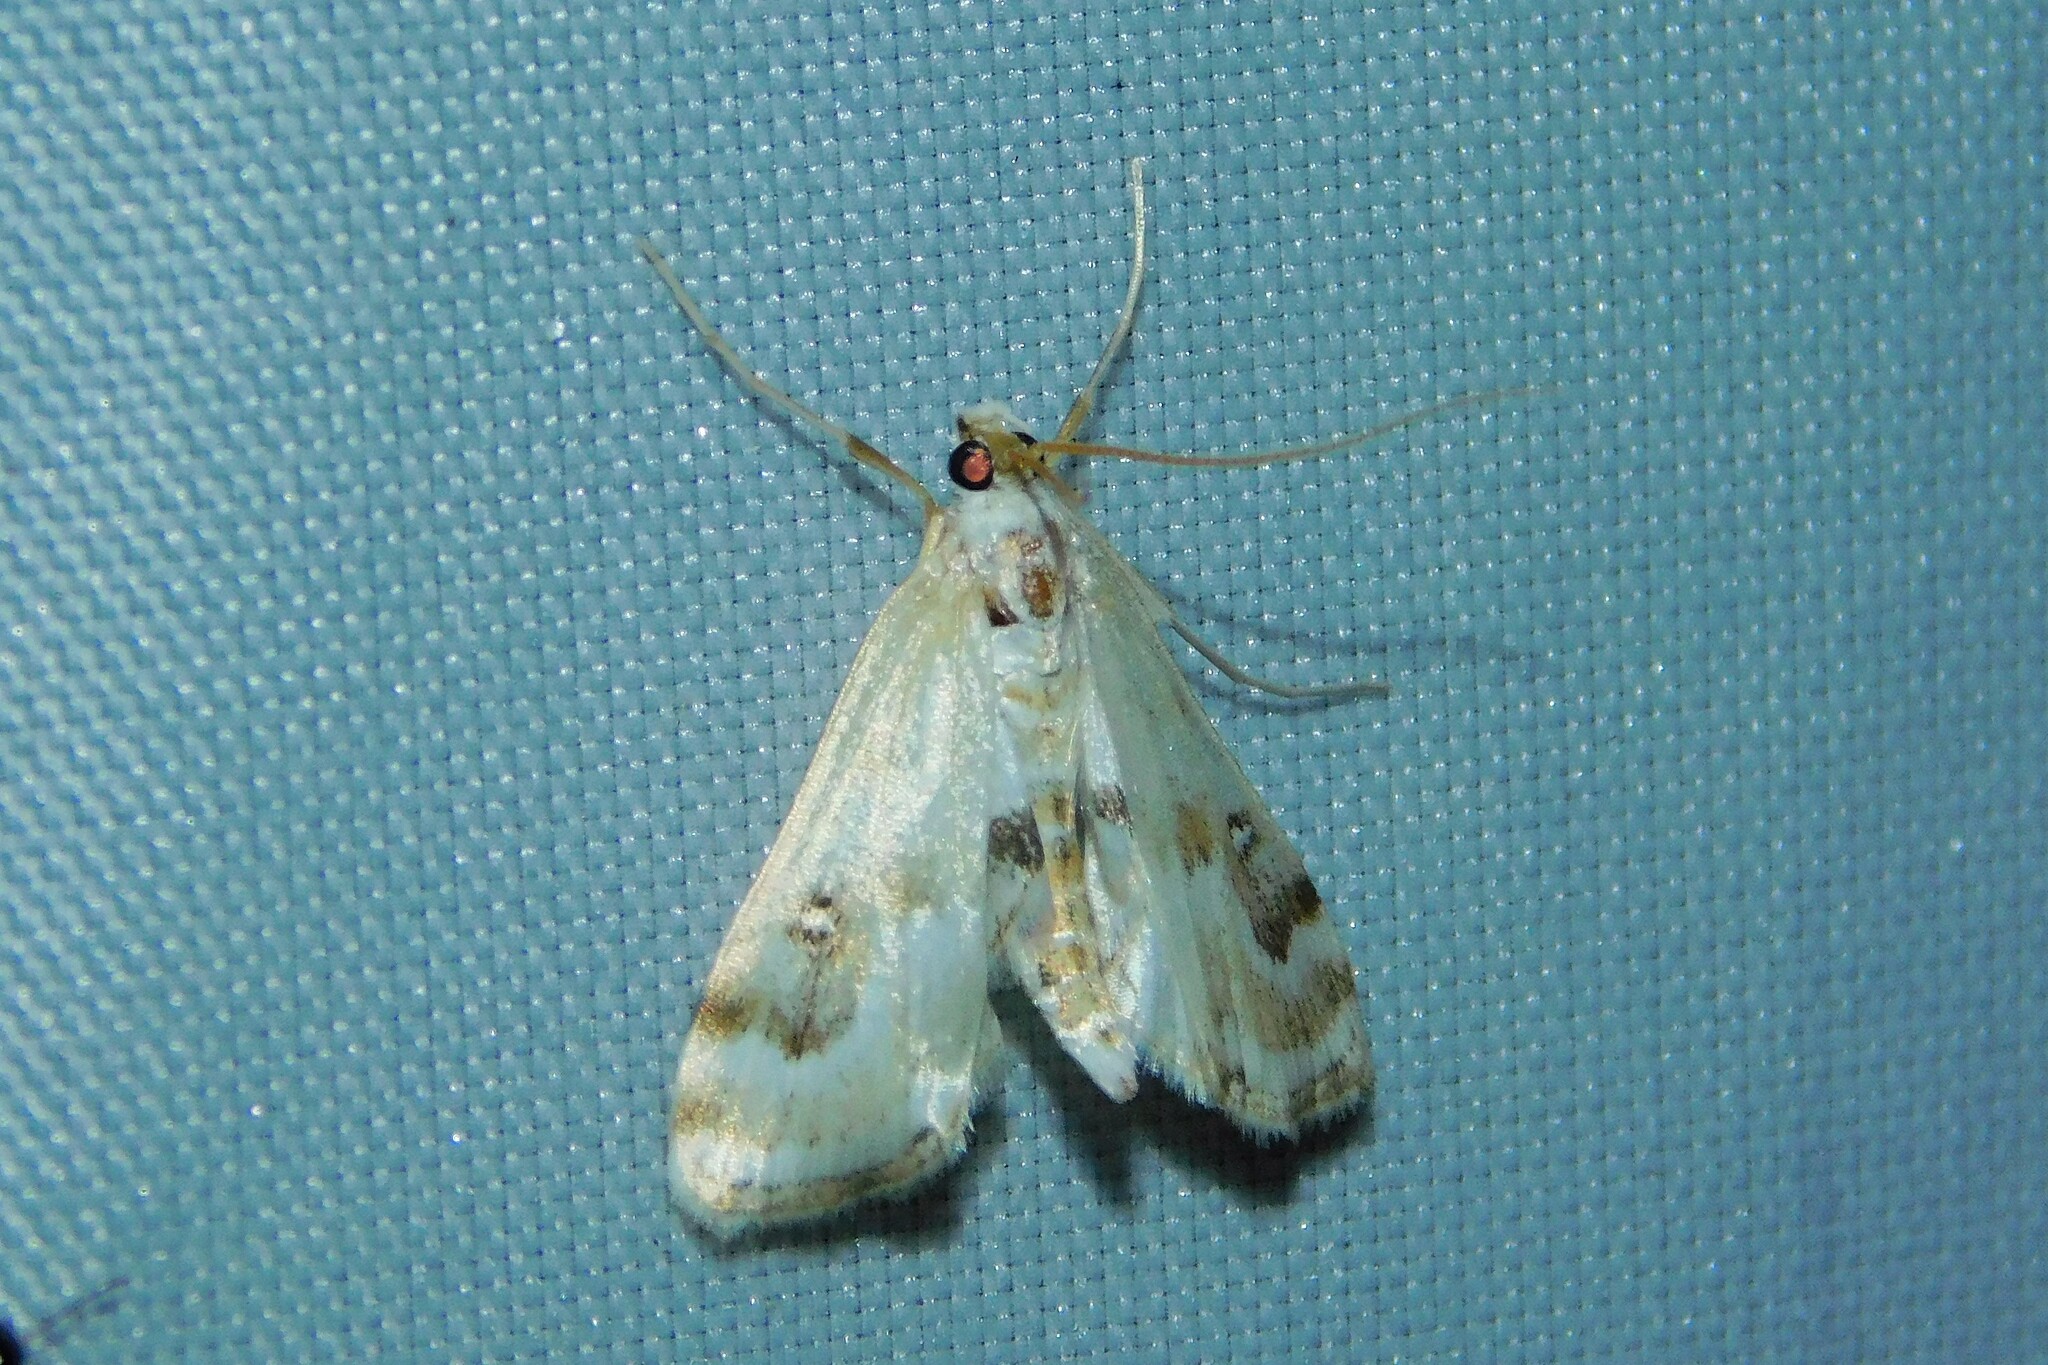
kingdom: Animalia
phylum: Arthropoda
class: Insecta
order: Lepidoptera
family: Crambidae
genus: Parapoynx
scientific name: Parapoynx stratiotata
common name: Ringed china-mark
